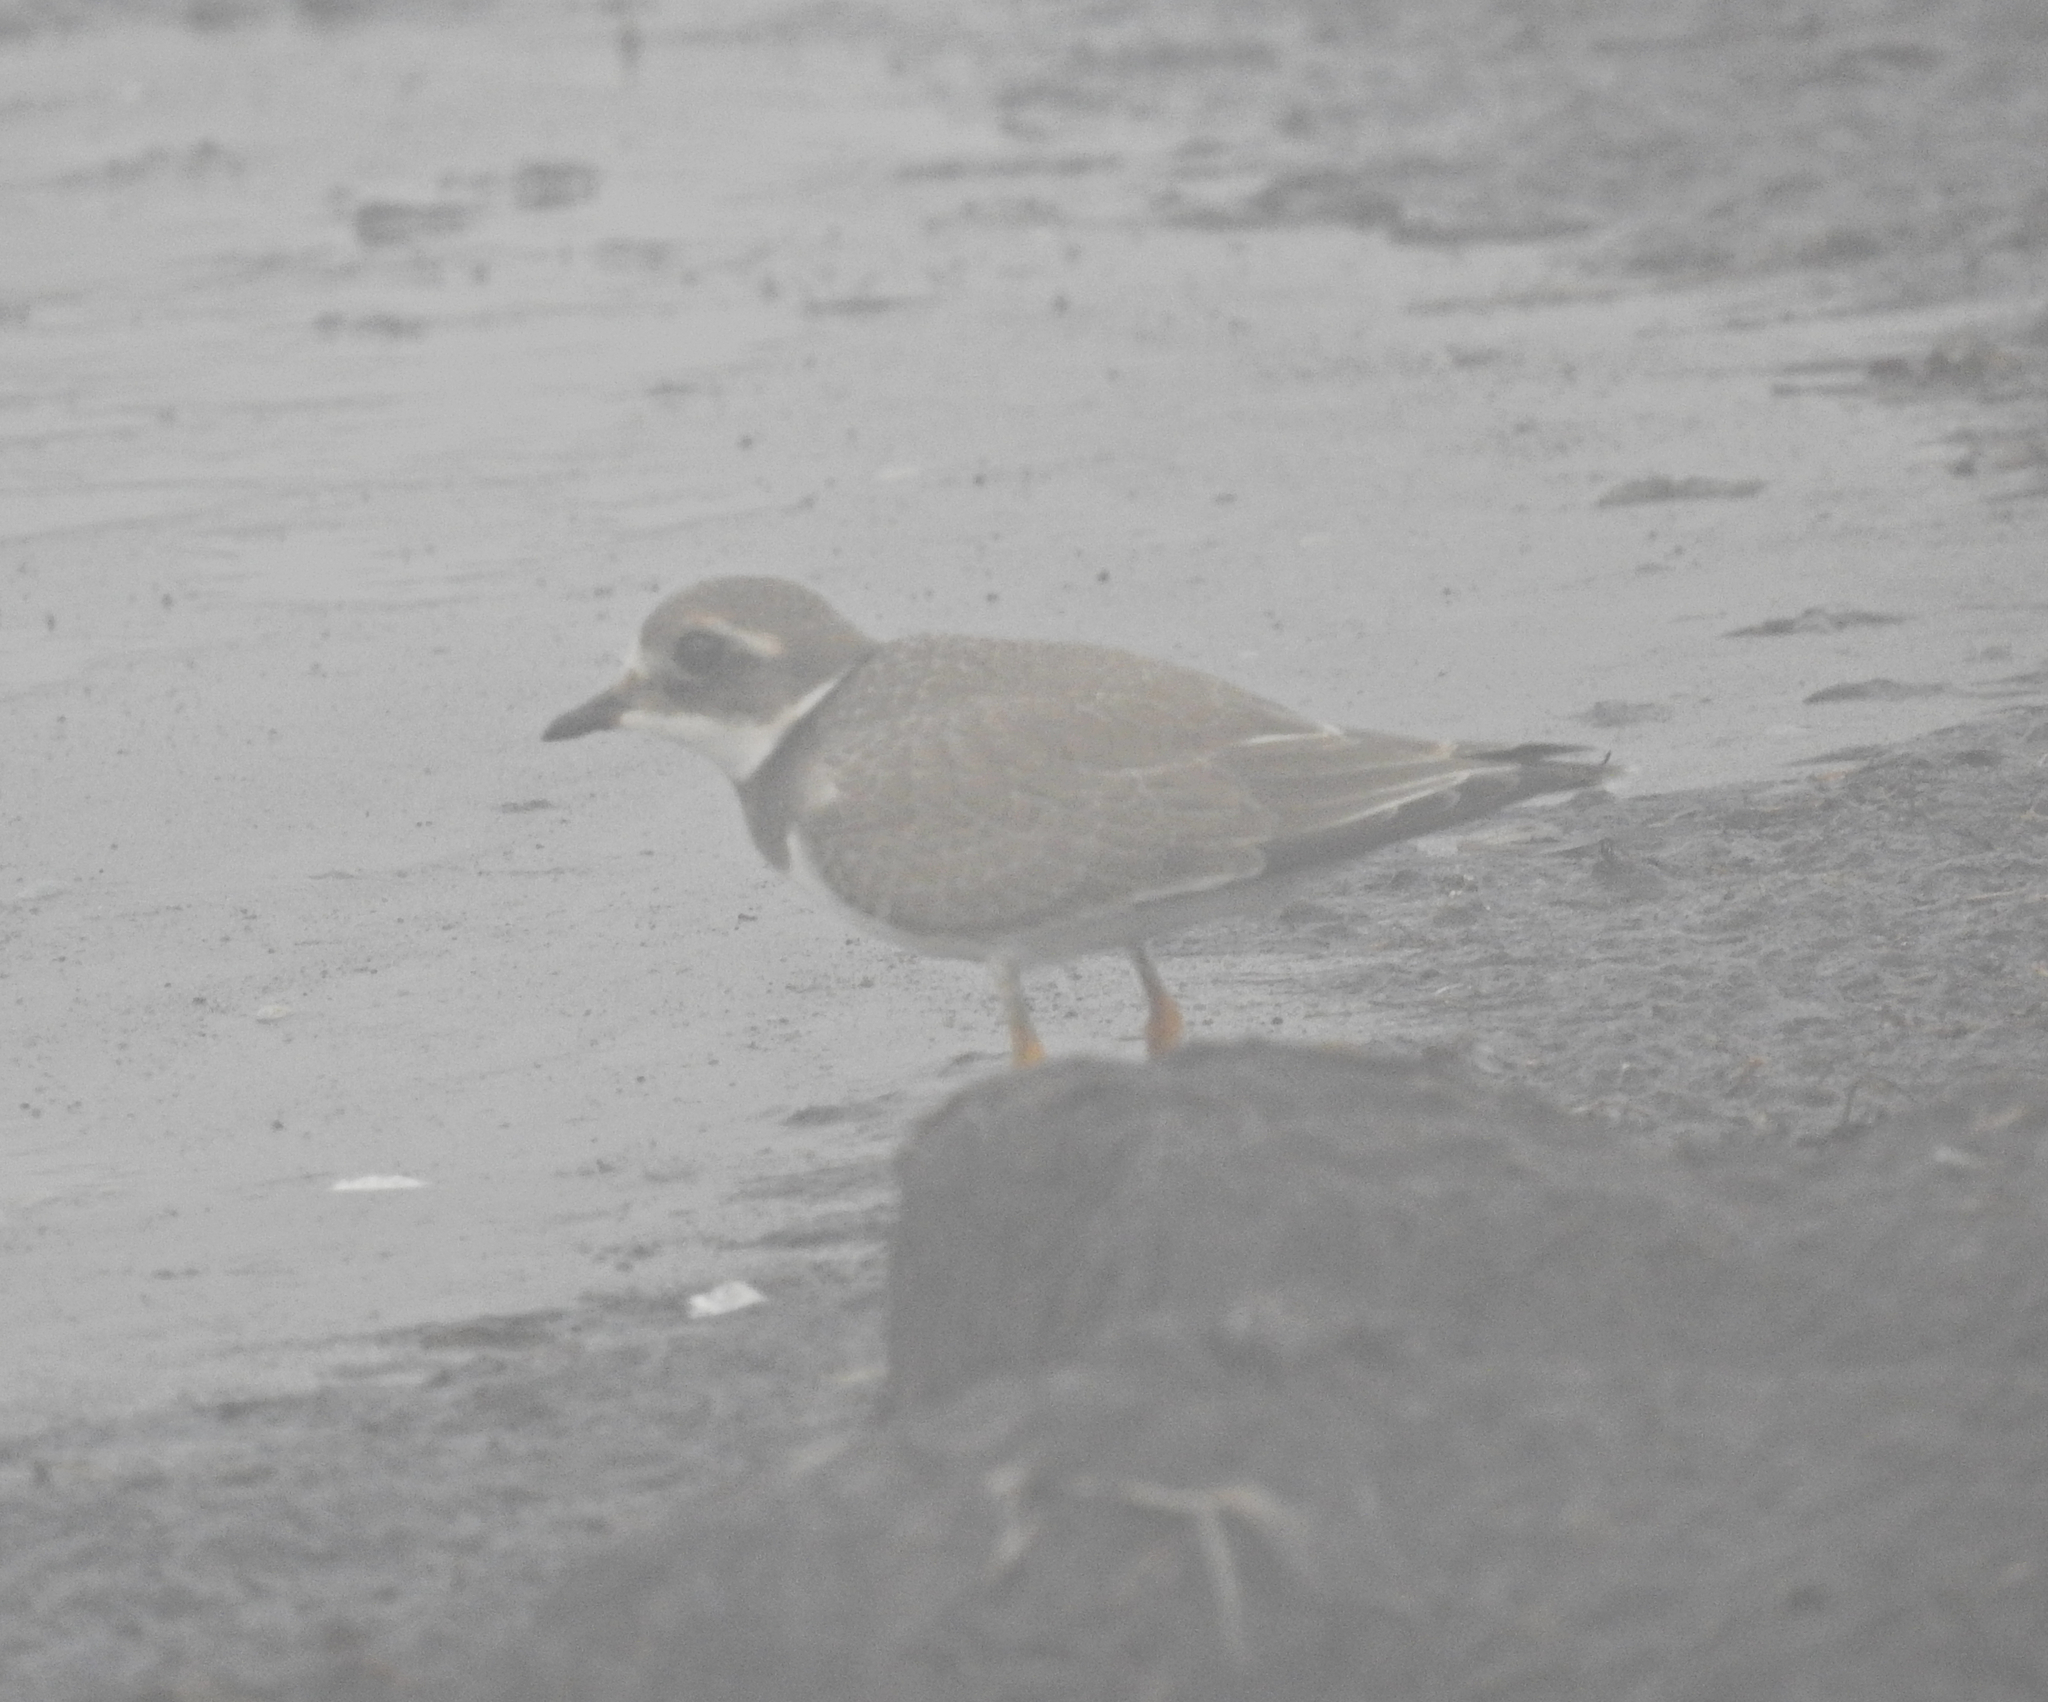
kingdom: Animalia
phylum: Chordata
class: Aves
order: Charadriiformes
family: Charadriidae
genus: Charadrius
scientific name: Charadrius hiaticula
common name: Common ringed plover
